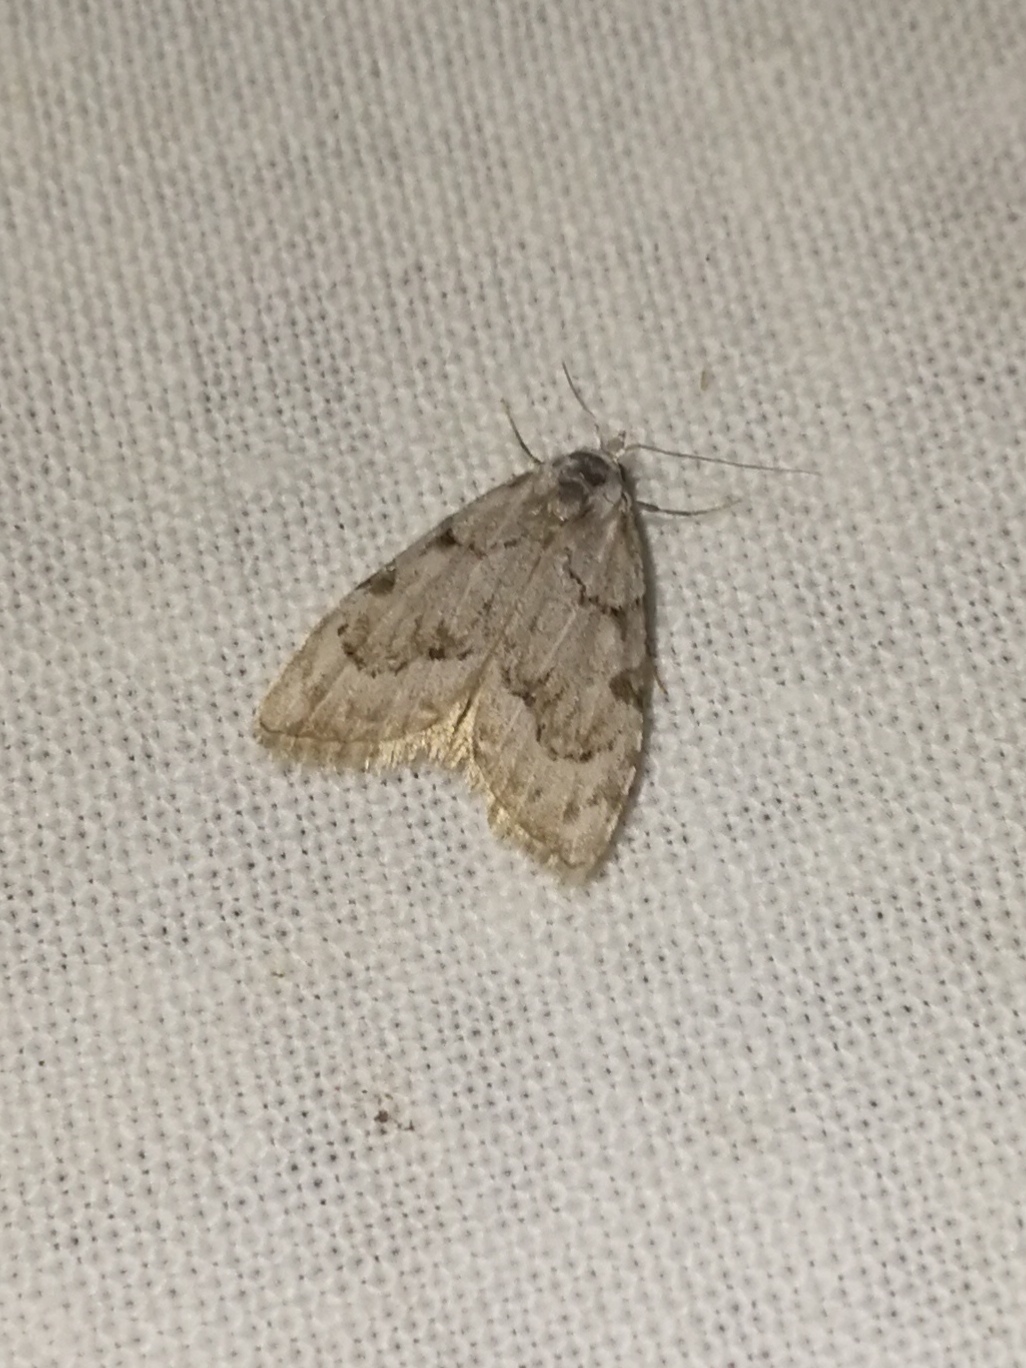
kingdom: Animalia
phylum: Arthropoda
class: Insecta
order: Lepidoptera
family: Nolidae
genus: Nola
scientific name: Nola confusalis
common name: Least black arches
